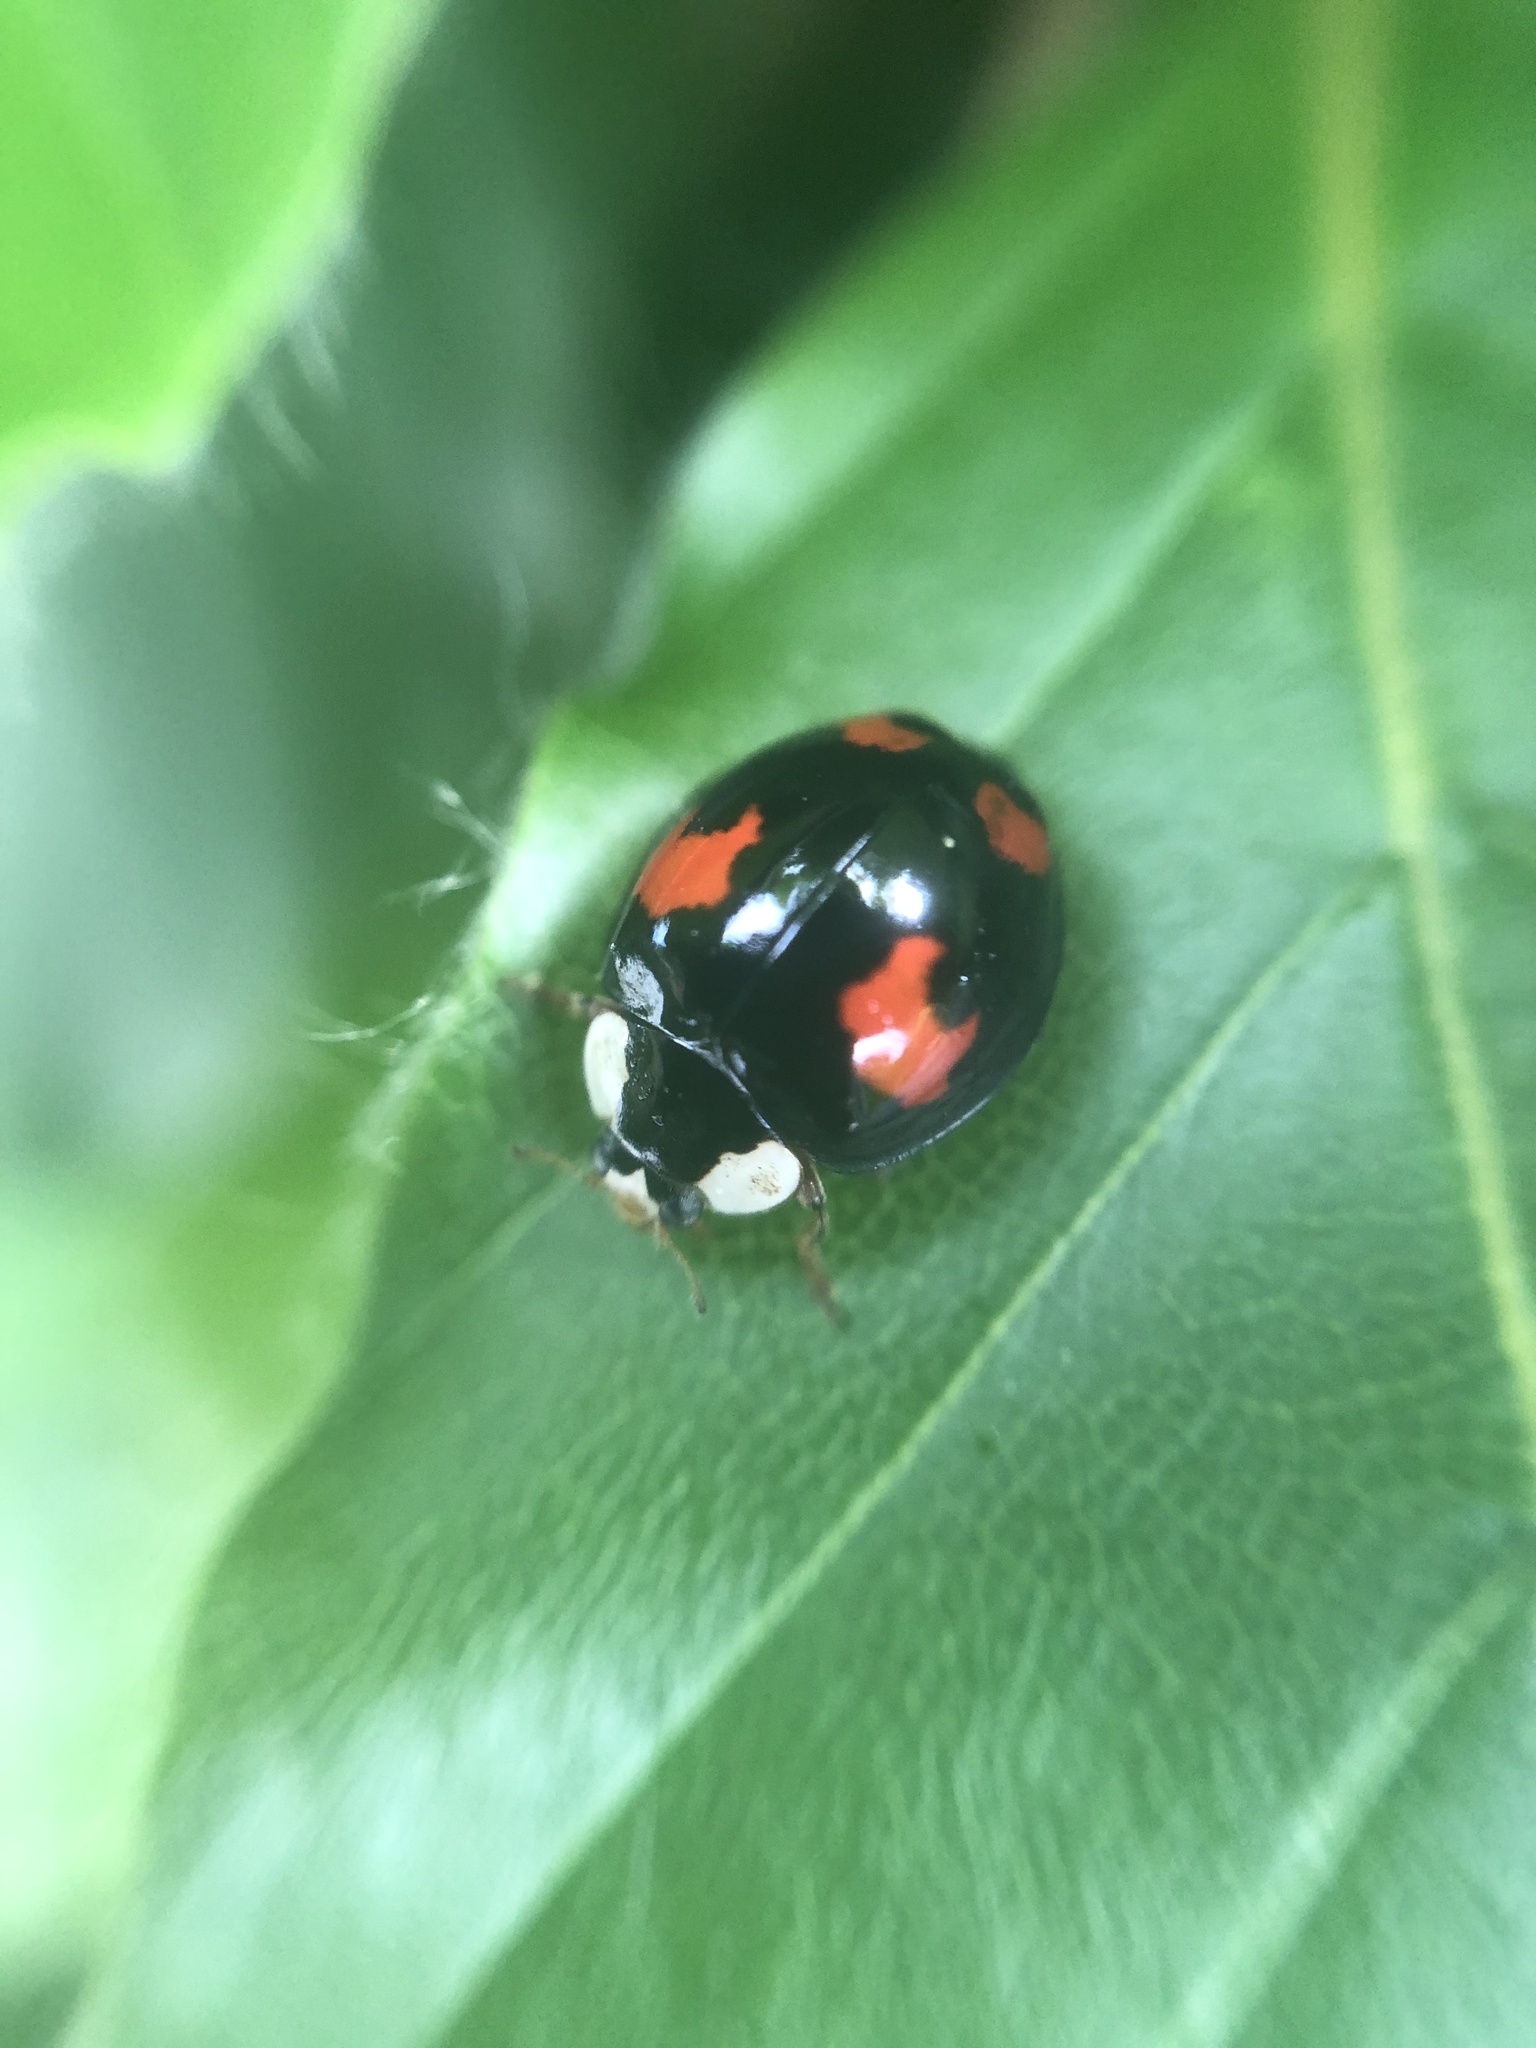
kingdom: Animalia
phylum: Arthropoda
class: Insecta
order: Coleoptera
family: Coccinellidae
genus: Harmonia
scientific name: Harmonia axyridis
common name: Harlequin ladybird
